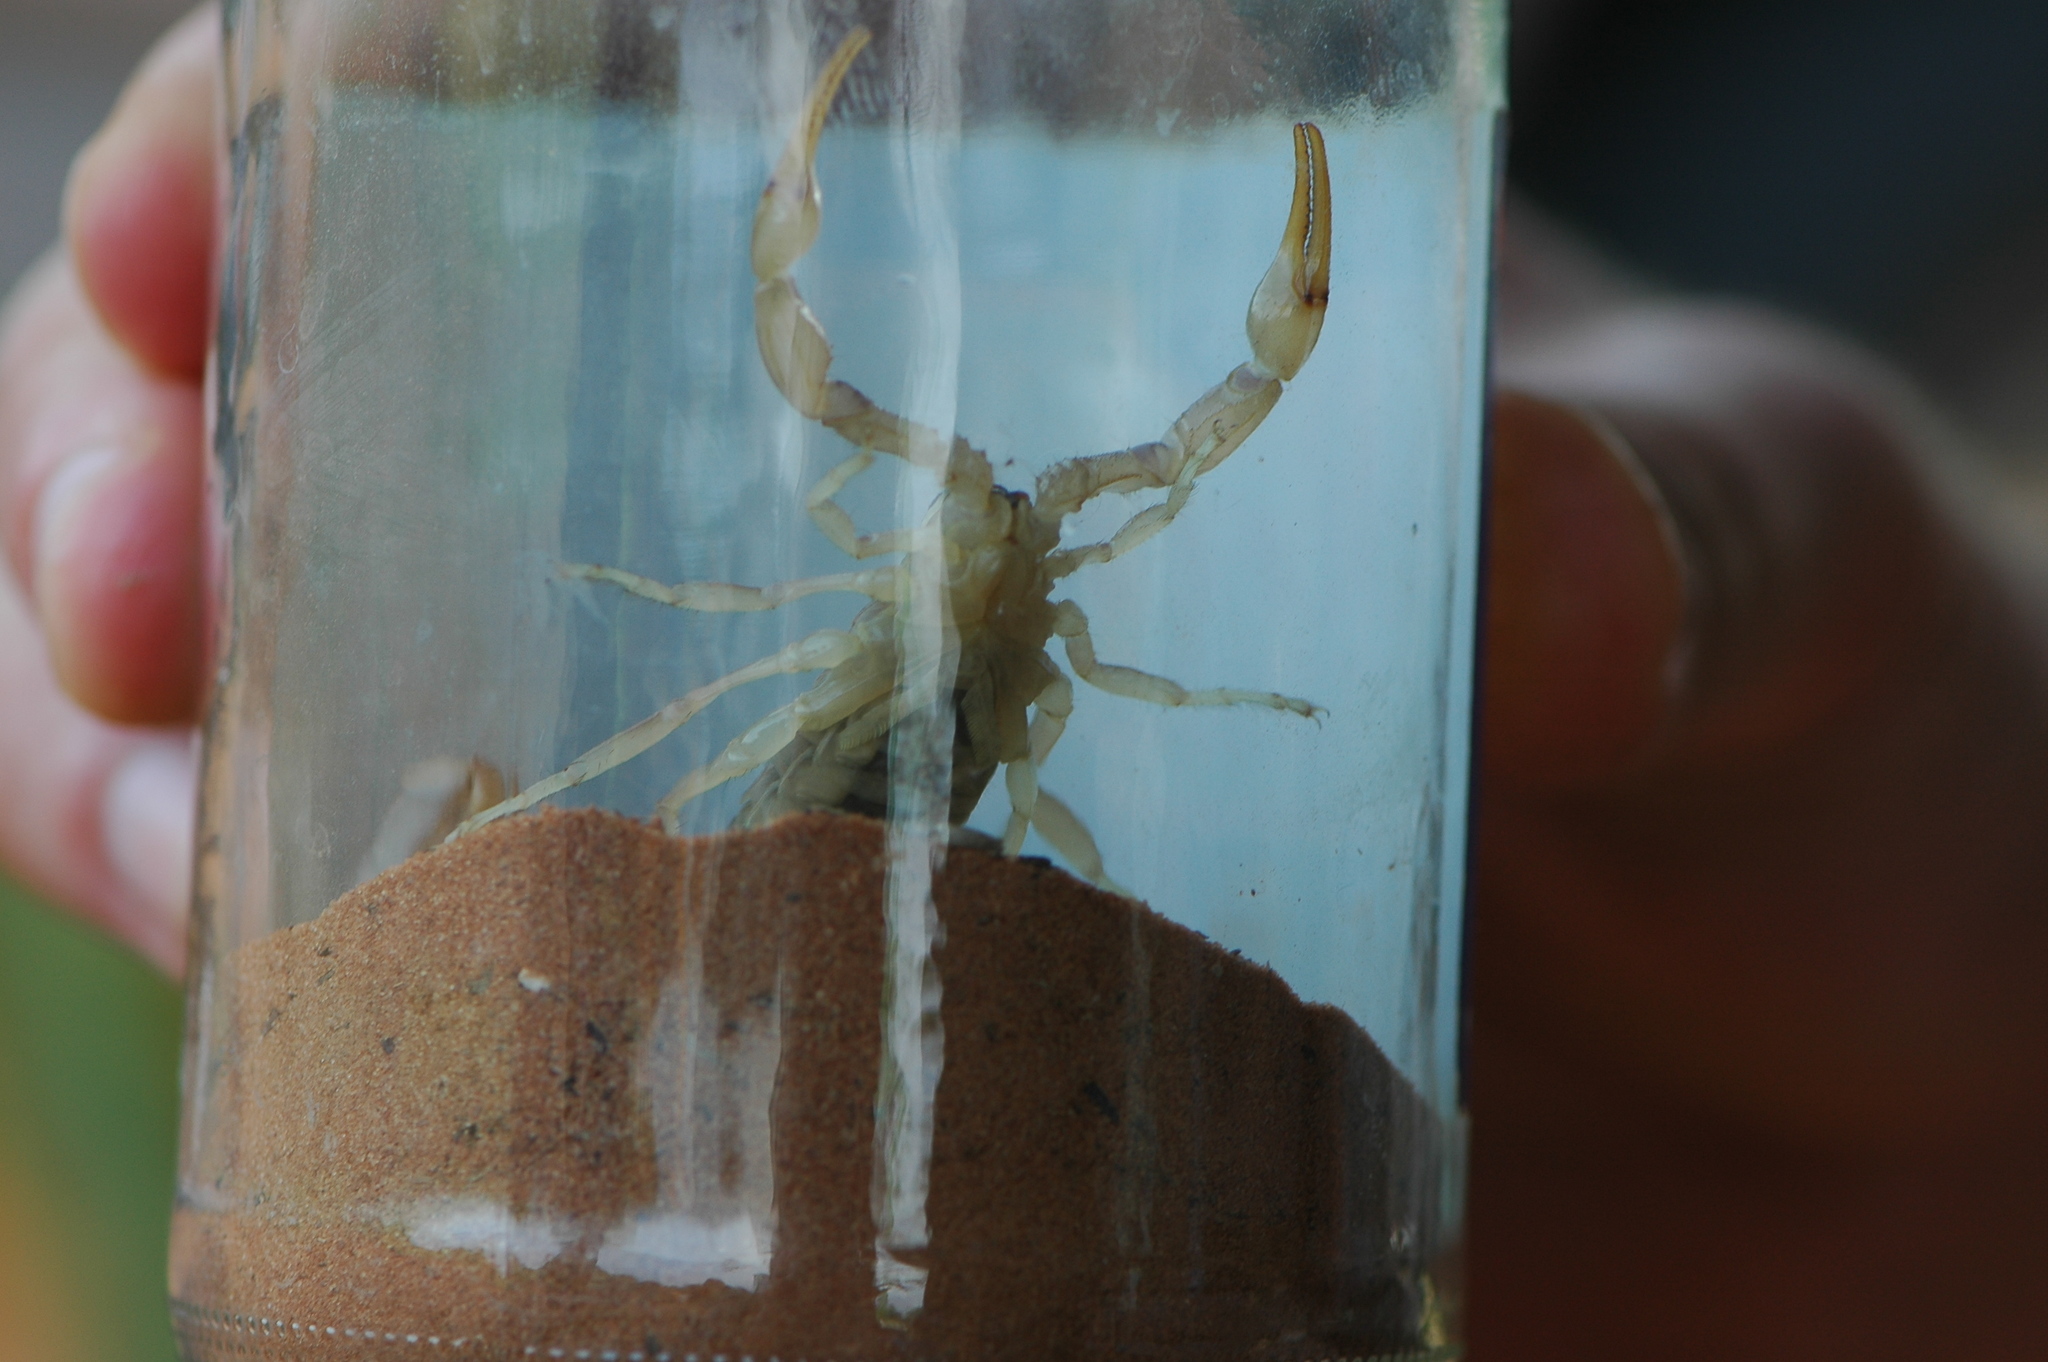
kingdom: Animalia
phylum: Arthropoda
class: Arachnida
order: Scorpiones
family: Buthidae
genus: Androctonus
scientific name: Androctonus dekeyseri
